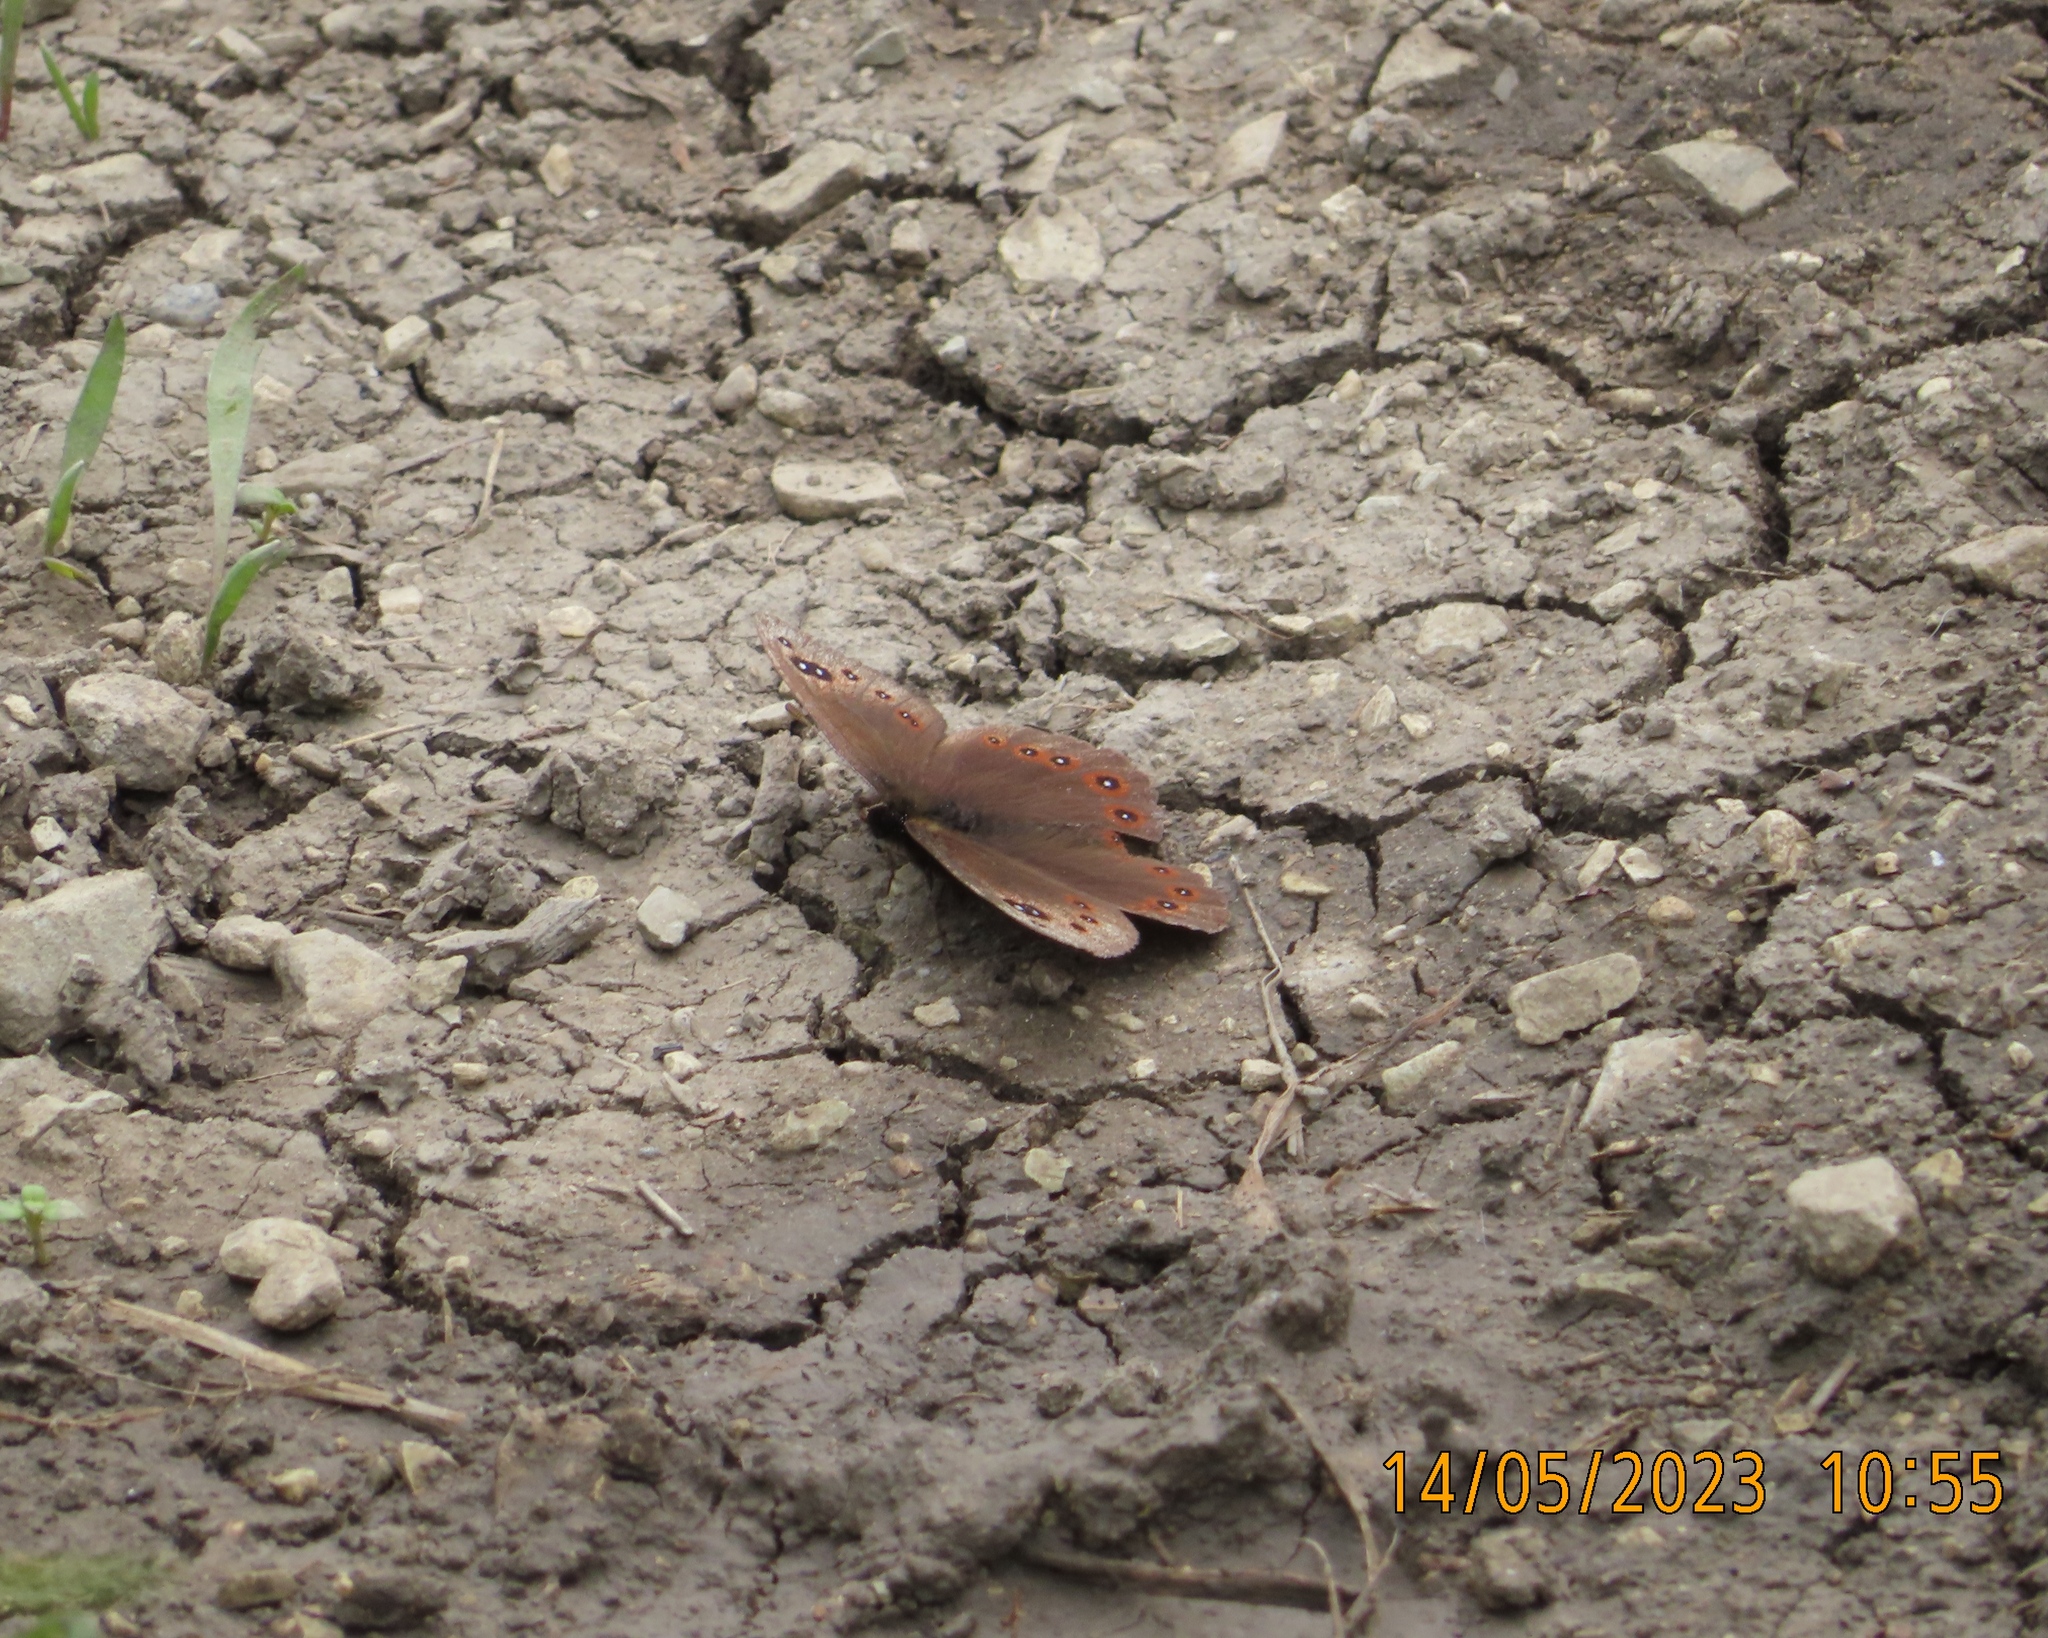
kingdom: Animalia
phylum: Arthropoda
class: Insecta
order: Lepidoptera
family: Nymphalidae
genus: Proterebia
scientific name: Proterebia afra
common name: Dalmatian ringlet
